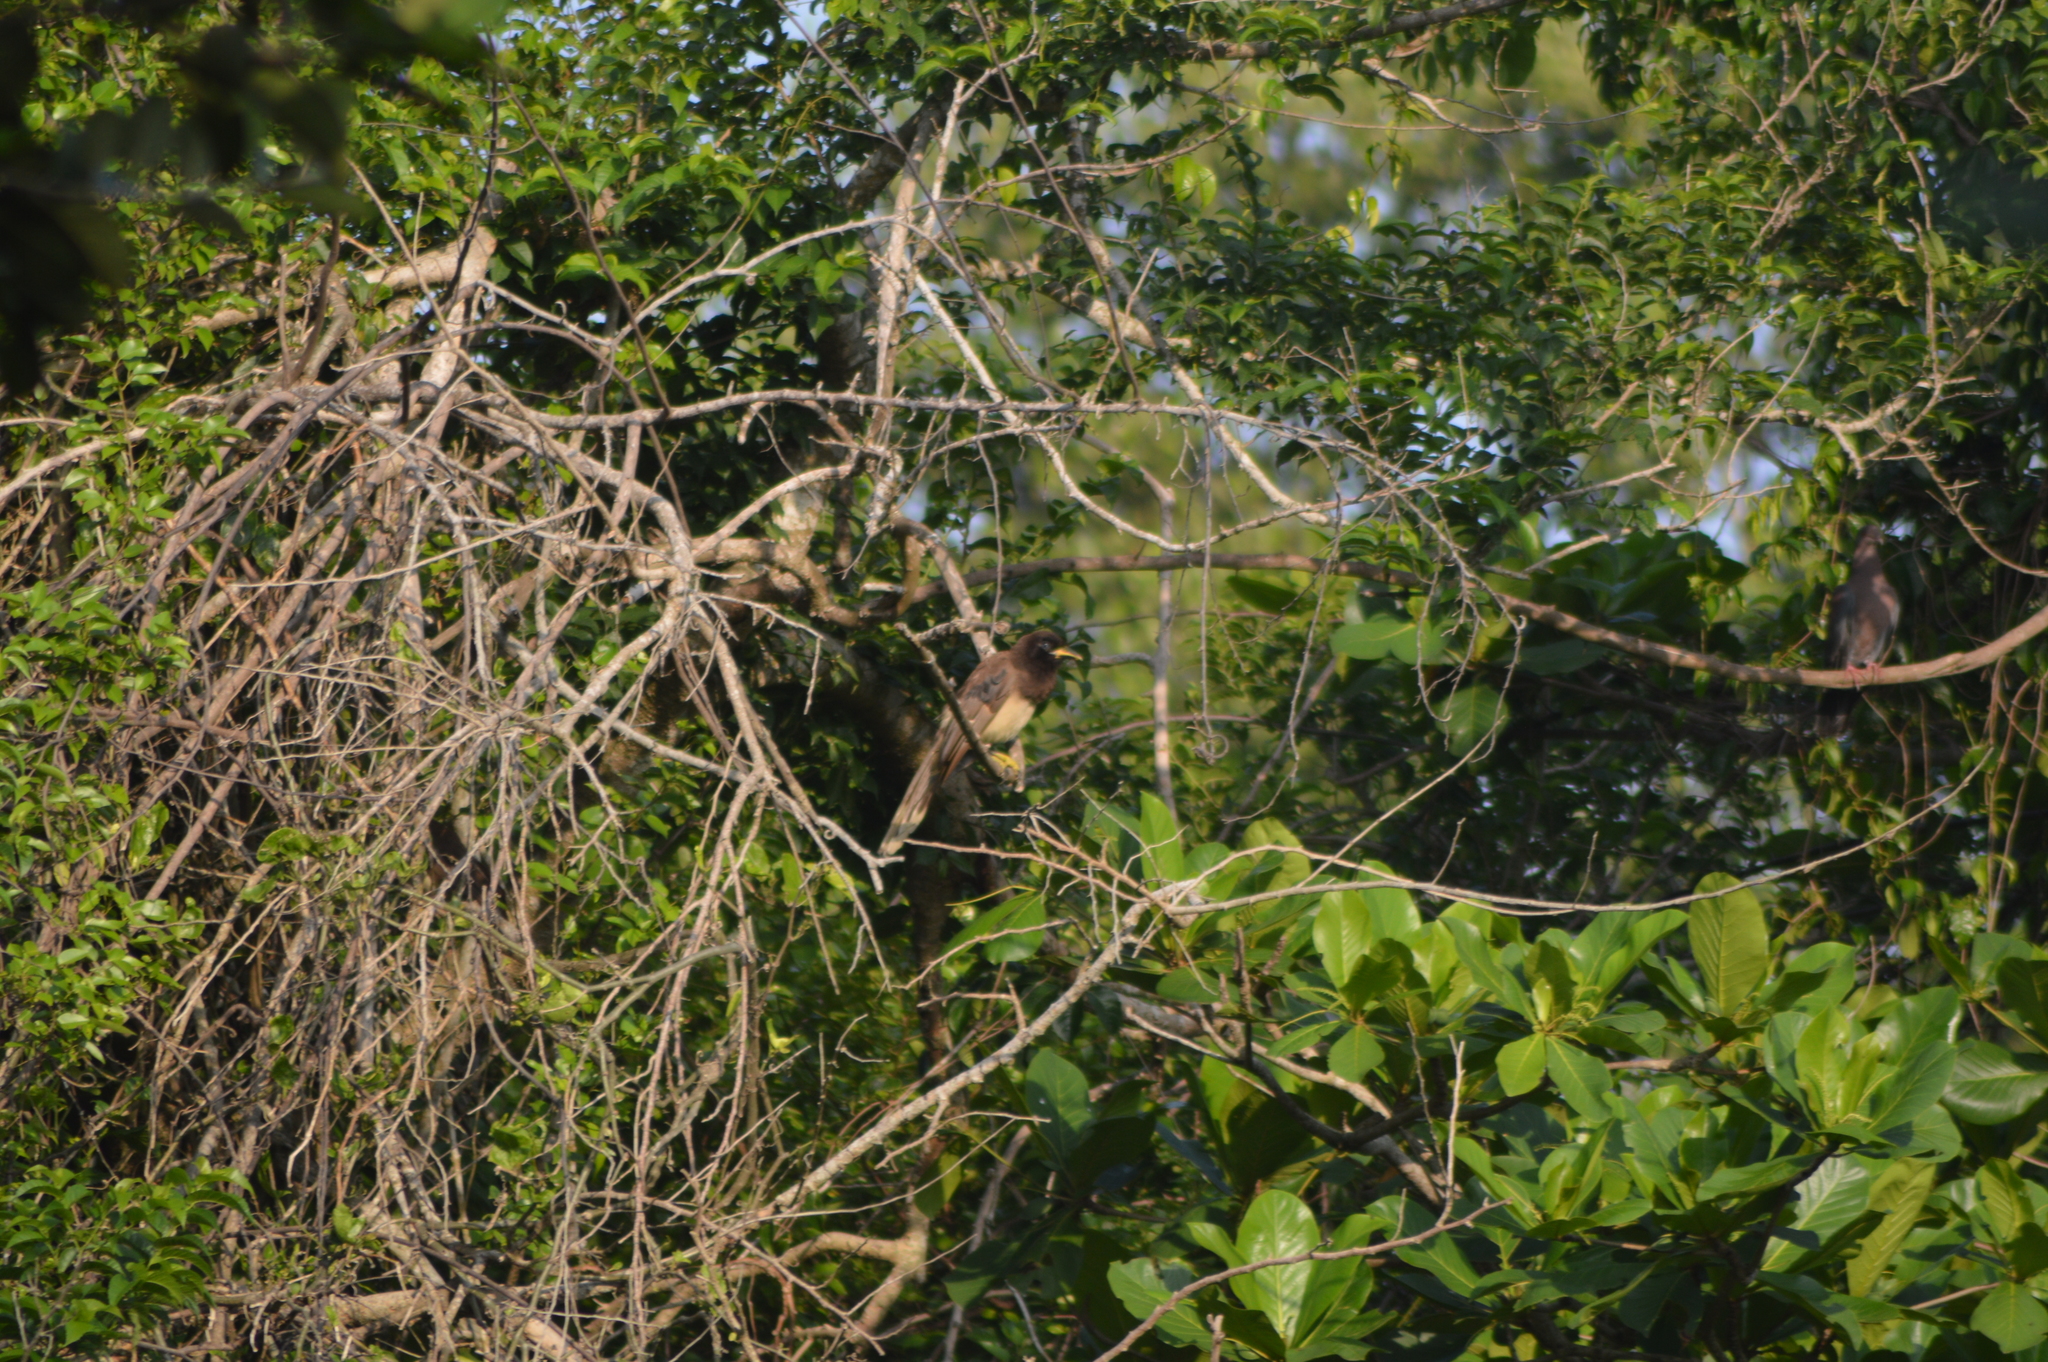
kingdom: Animalia
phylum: Chordata
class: Aves
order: Passeriformes
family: Corvidae
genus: Psilorhinus
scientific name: Psilorhinus morio
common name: Brown jay
